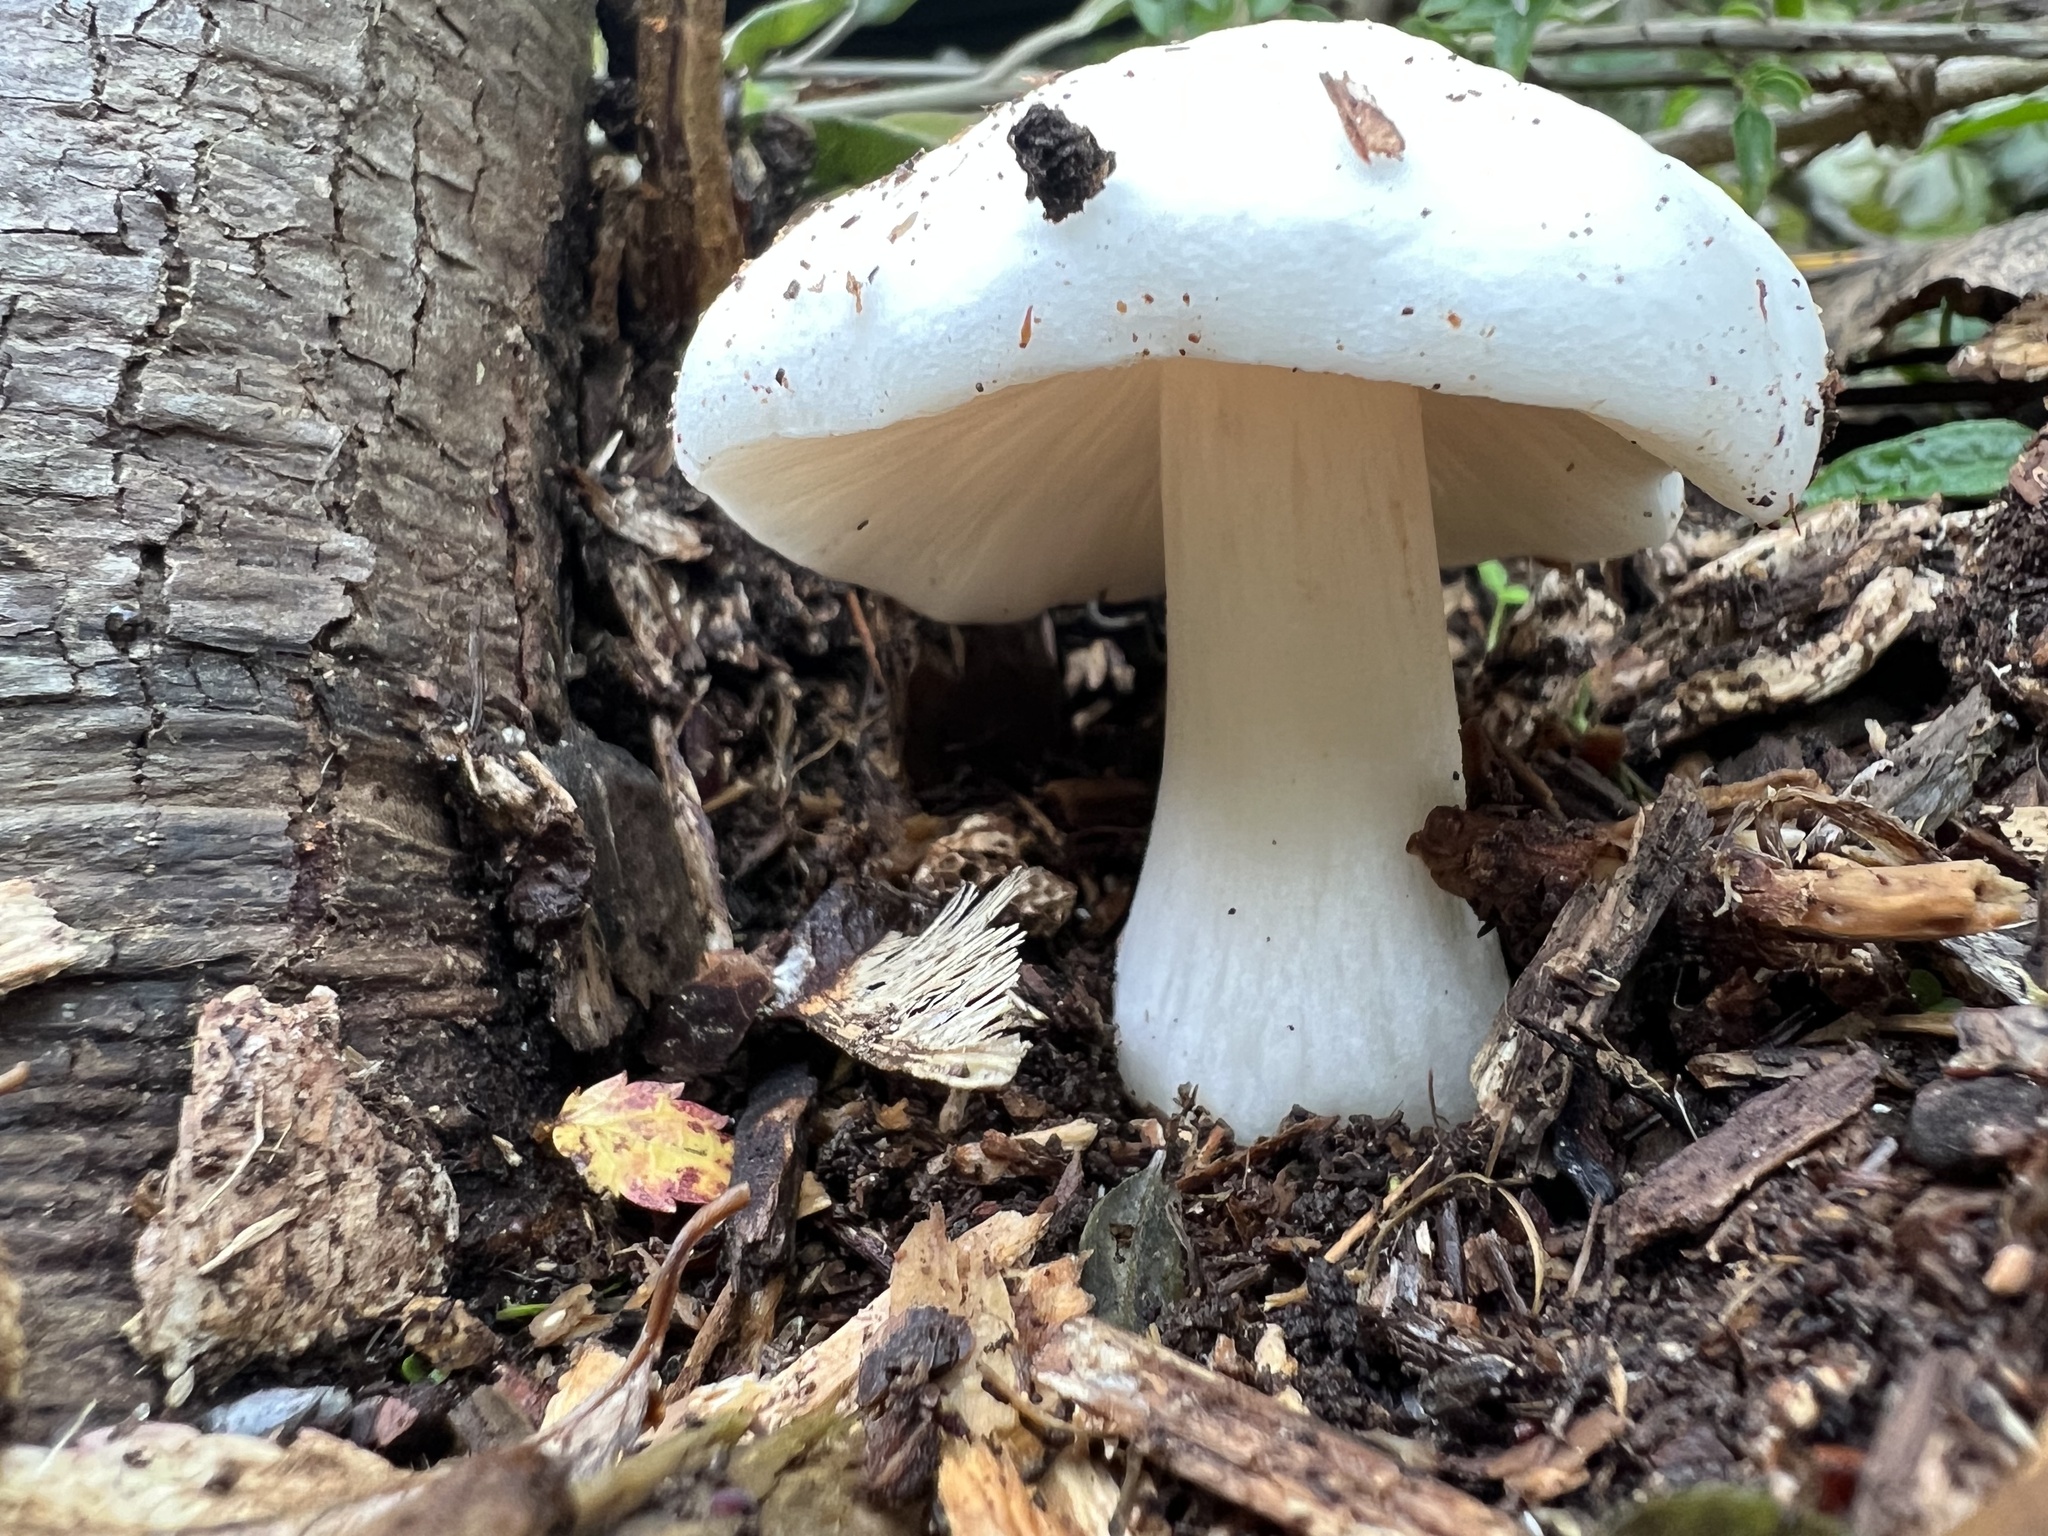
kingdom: Fungi
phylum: Basidiomycota
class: Agaricomycetes
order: Agaricales
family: Pluteaceae
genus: Volvopluteus
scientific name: Volvopluteus gloiocephalus
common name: Stubble rosegill
